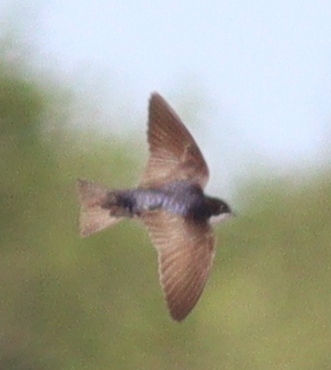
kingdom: Animalia
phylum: Chordata
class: Aves
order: Passeriformes
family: Hirundinidae
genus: Notiochelidon
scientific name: Notiochelidon cyanoleuca
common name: Blue-and-white swallow
